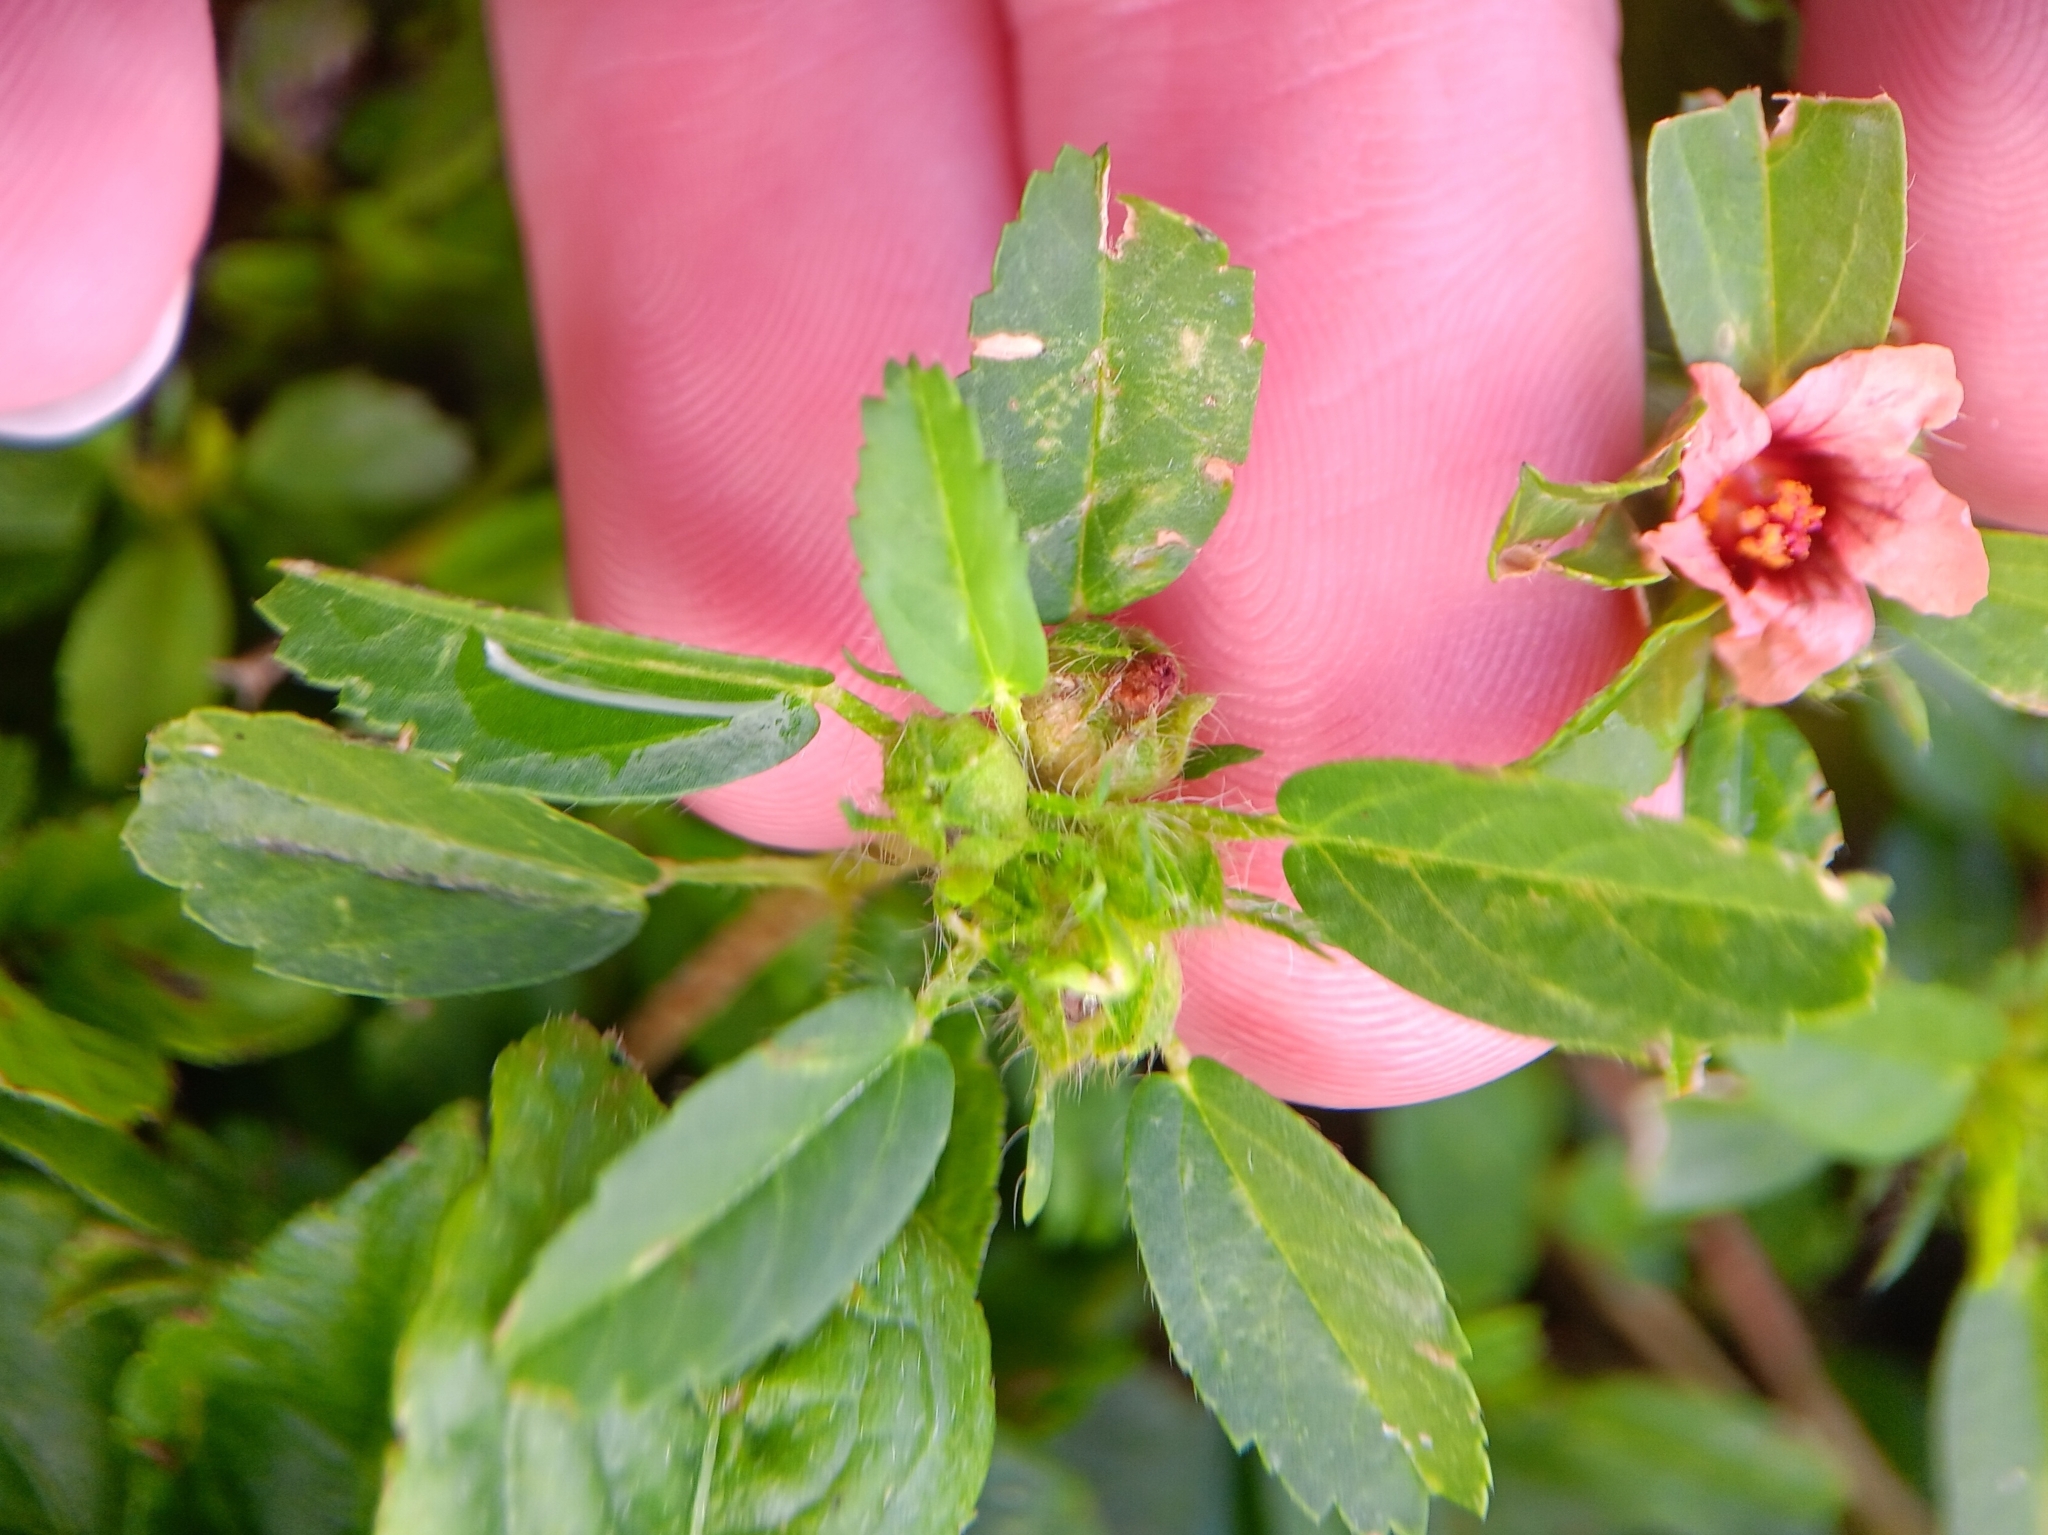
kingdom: Plantae
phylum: Tracheophyta
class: Magnoliopsida
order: Malvales
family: Malvaceae
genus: Sida
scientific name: Sida ciliaris
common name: Bracted fanpetals
